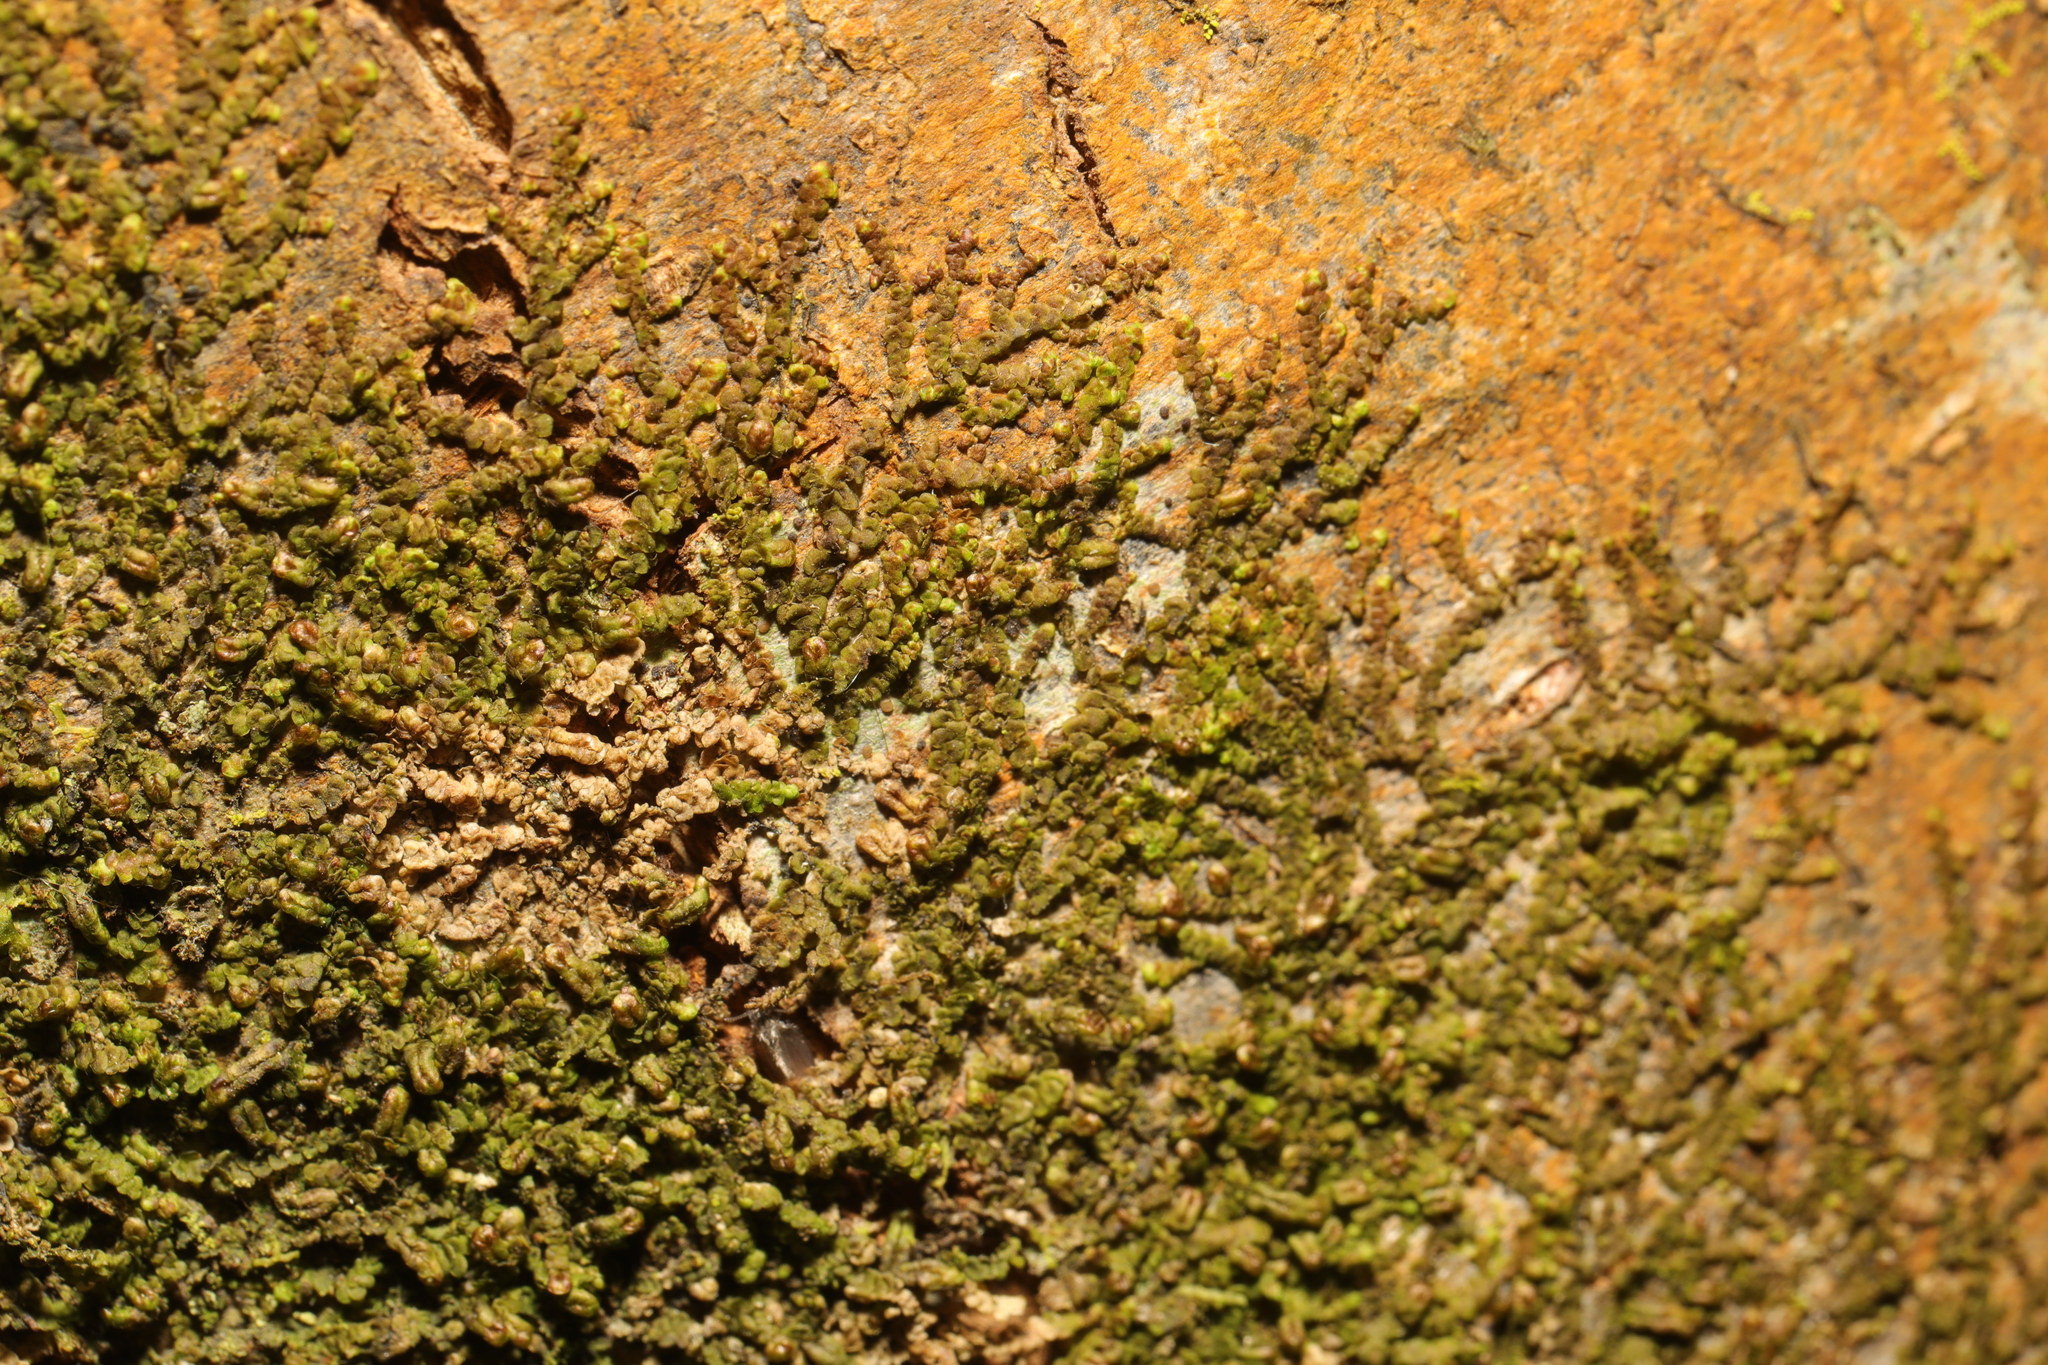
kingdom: Plantae
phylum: Marchantiophyta
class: Jungermanniopsida
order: Porellales
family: Frullaniaceae
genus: Frullania
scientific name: Frullania dilatata
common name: Dilated scalewort
